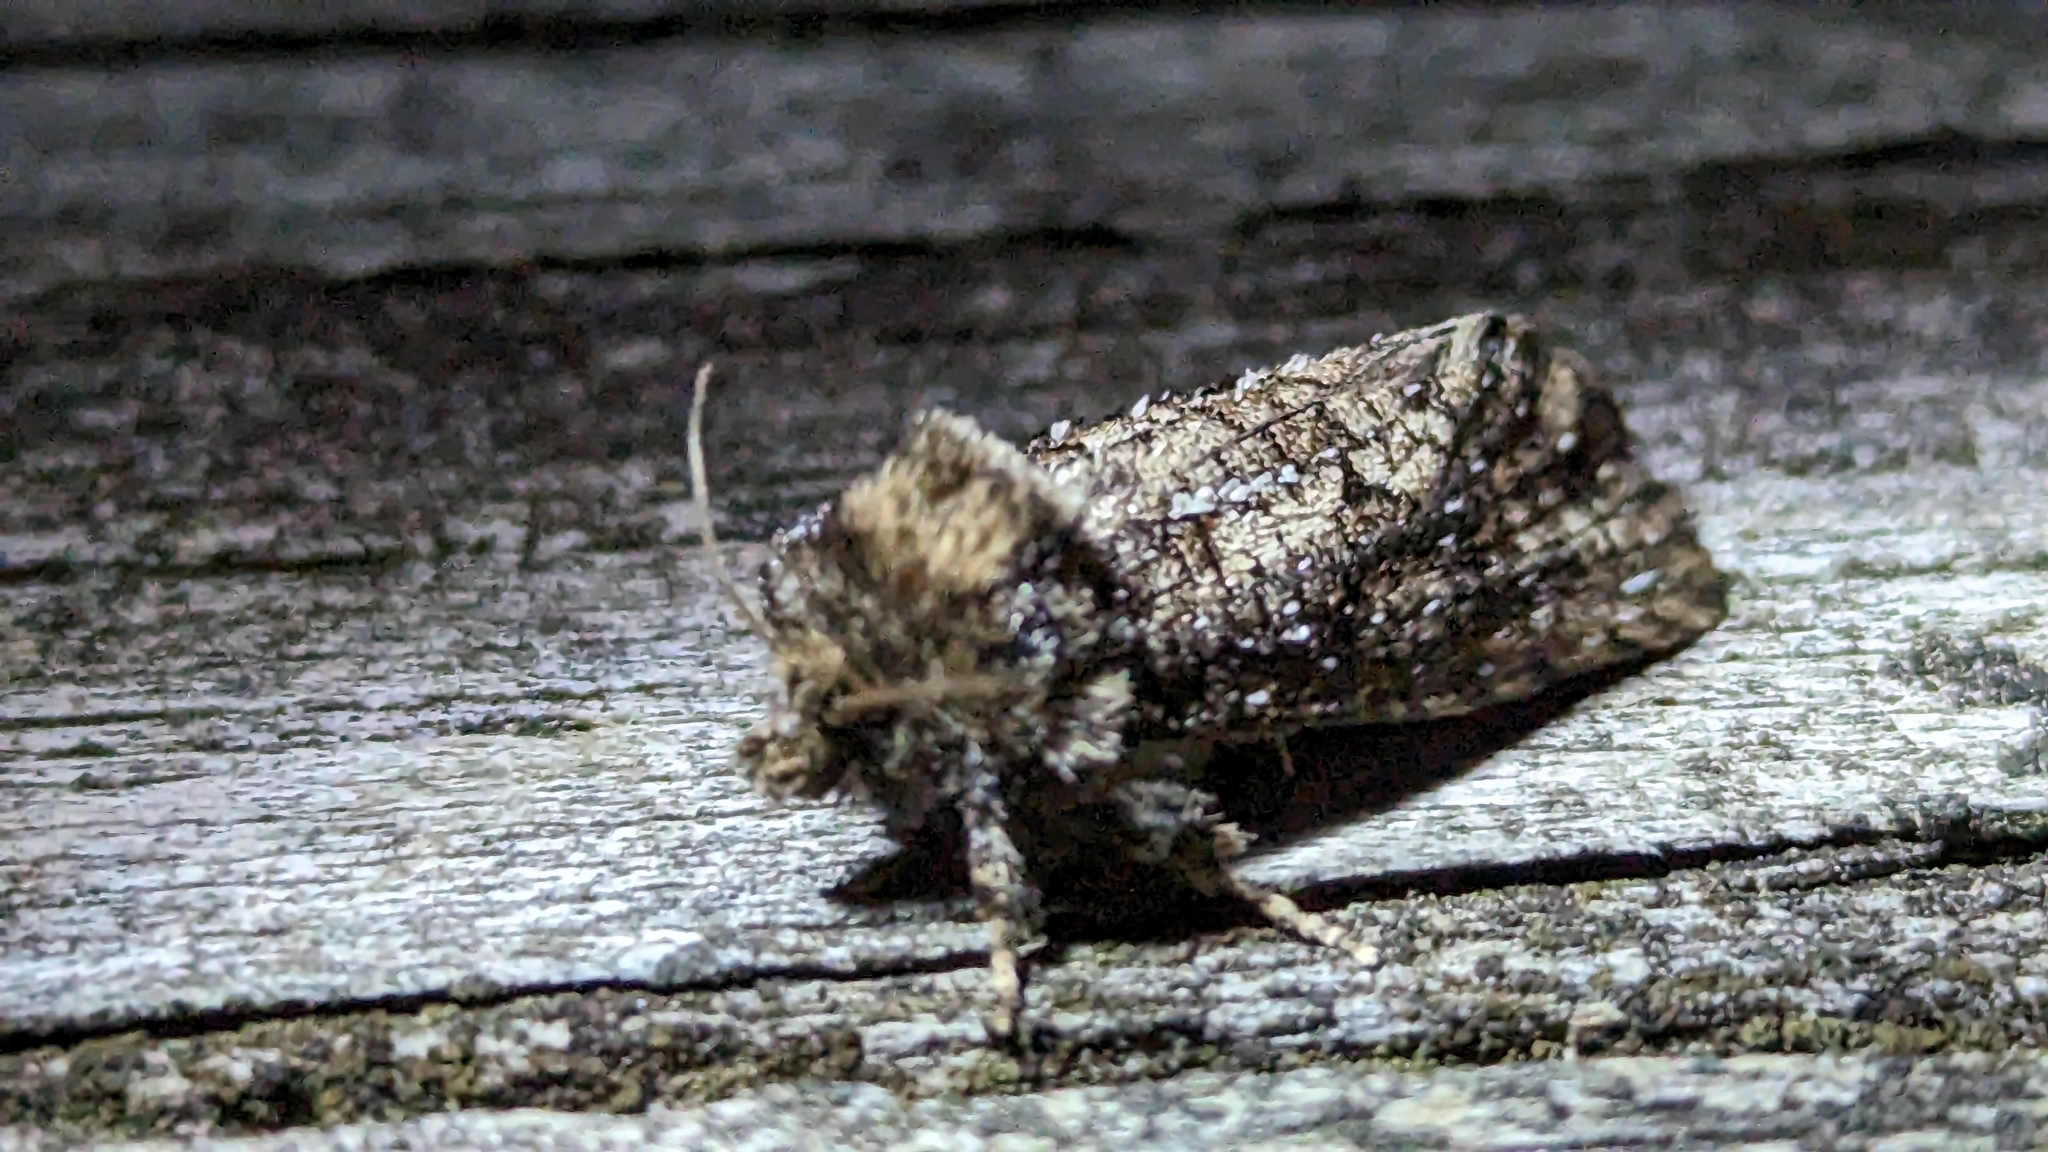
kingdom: Animalia
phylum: Arthropoda
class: Insecta
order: Lepidoptera
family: Tineidae
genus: Acrolophus
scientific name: Acrolophus arcanella
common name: Arcane grass tubeworm moth
